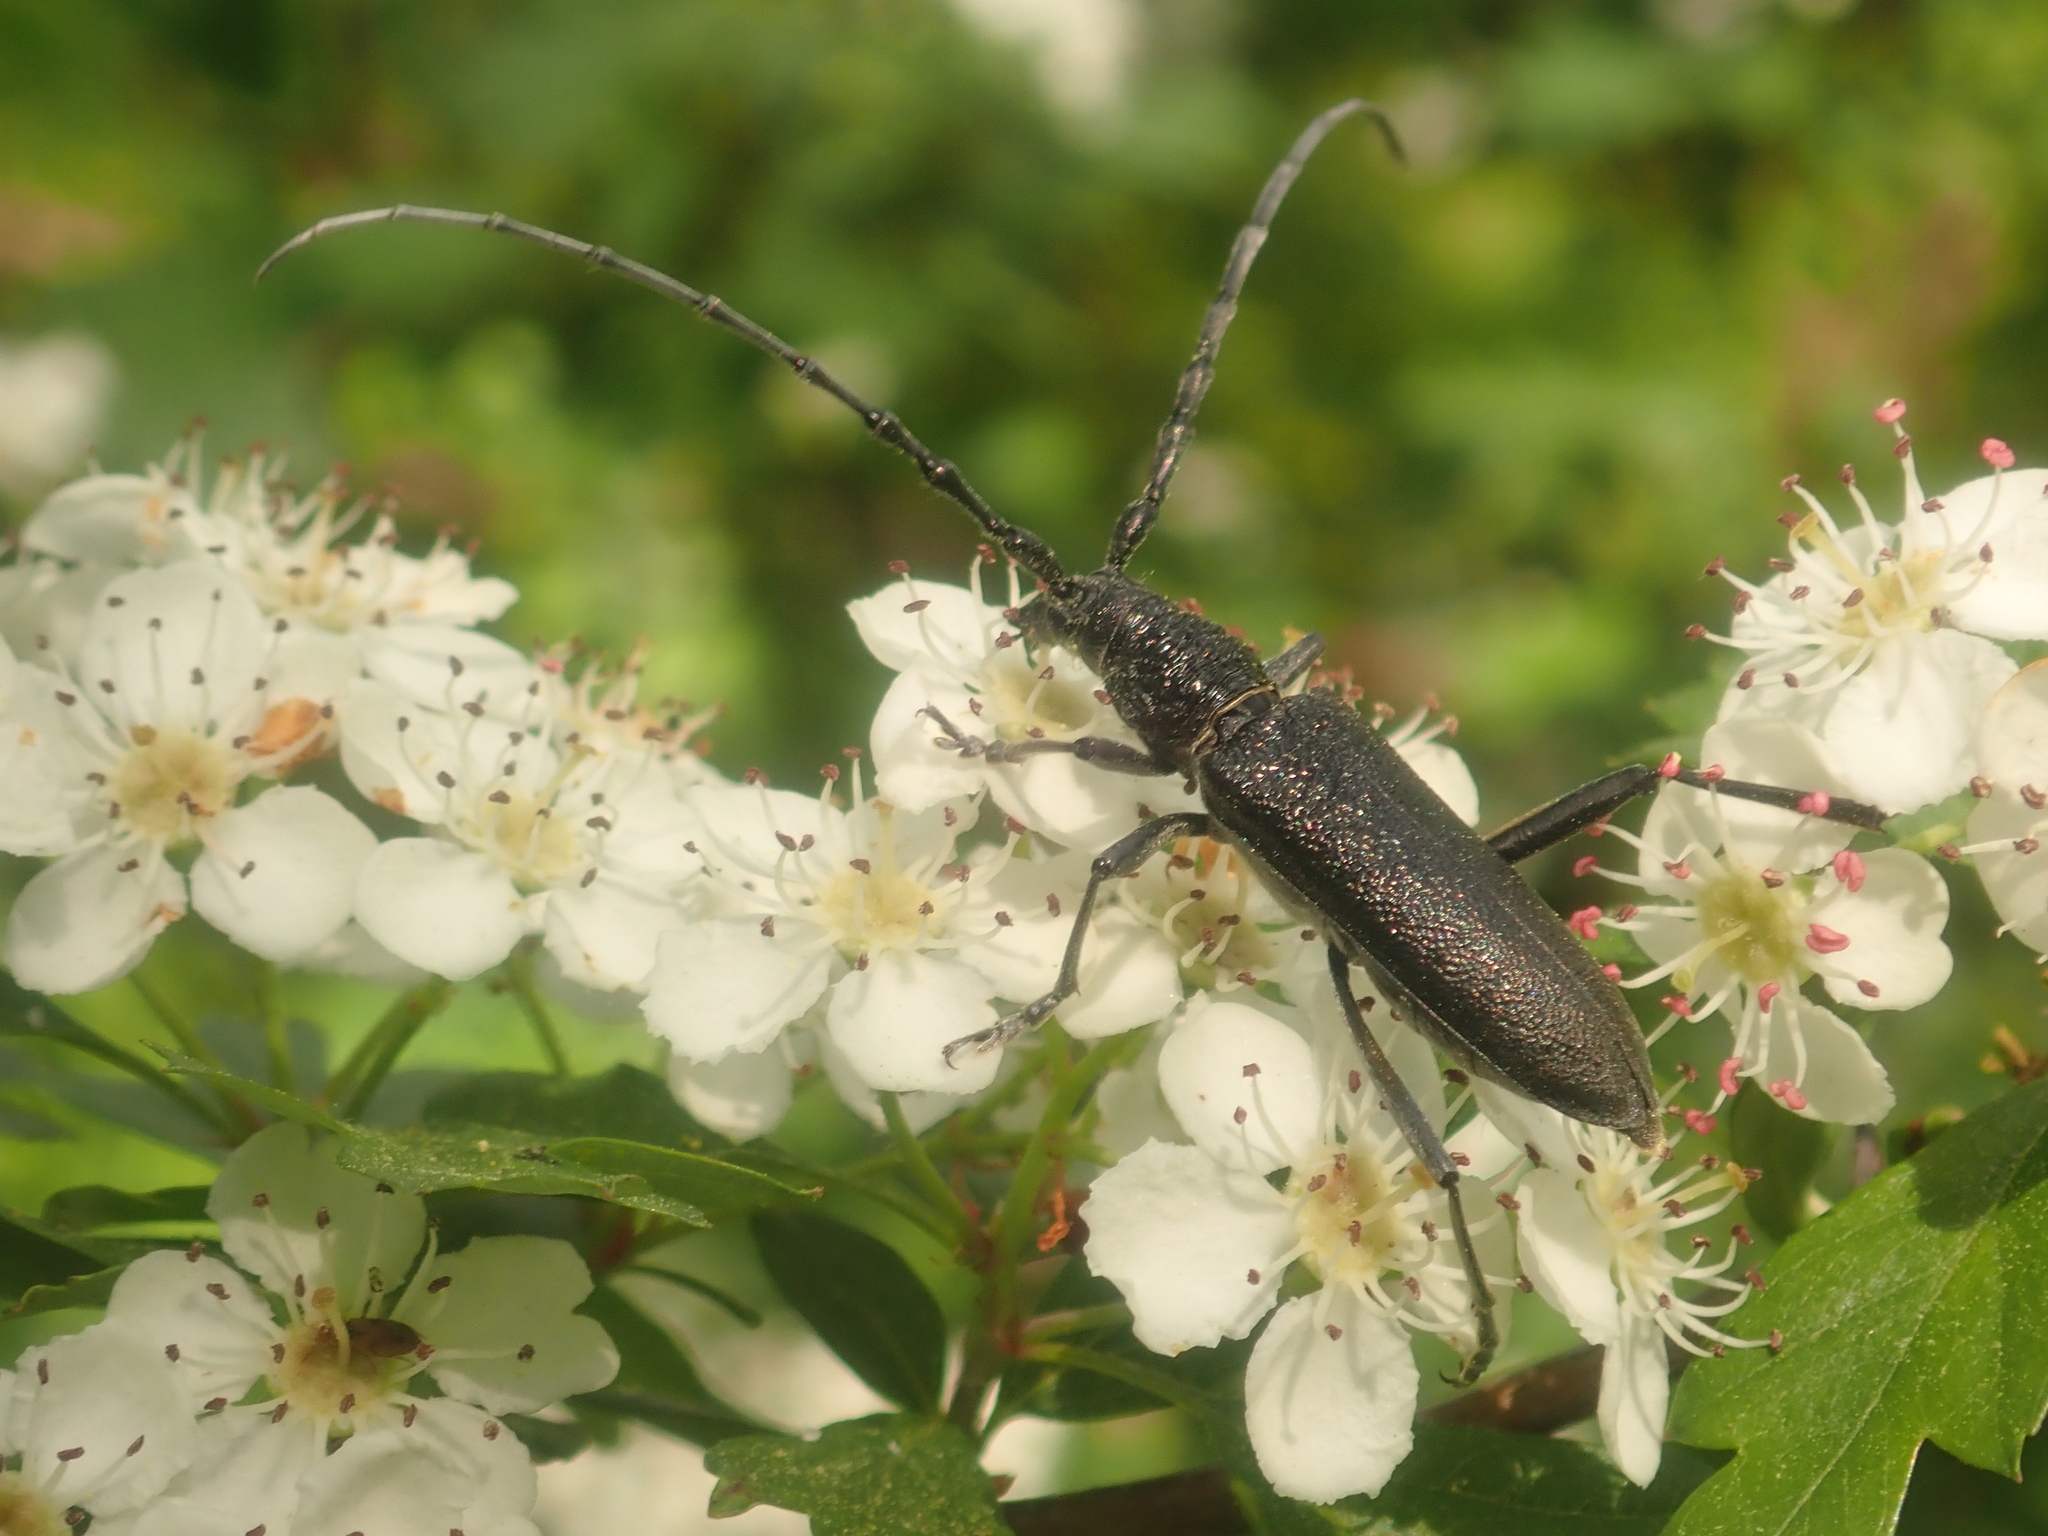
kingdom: Animalia
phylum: Arthropoda
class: Insecta
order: Coleoptera
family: Cerambycidae
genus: Cerambyx
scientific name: Cerambyx scopolii
